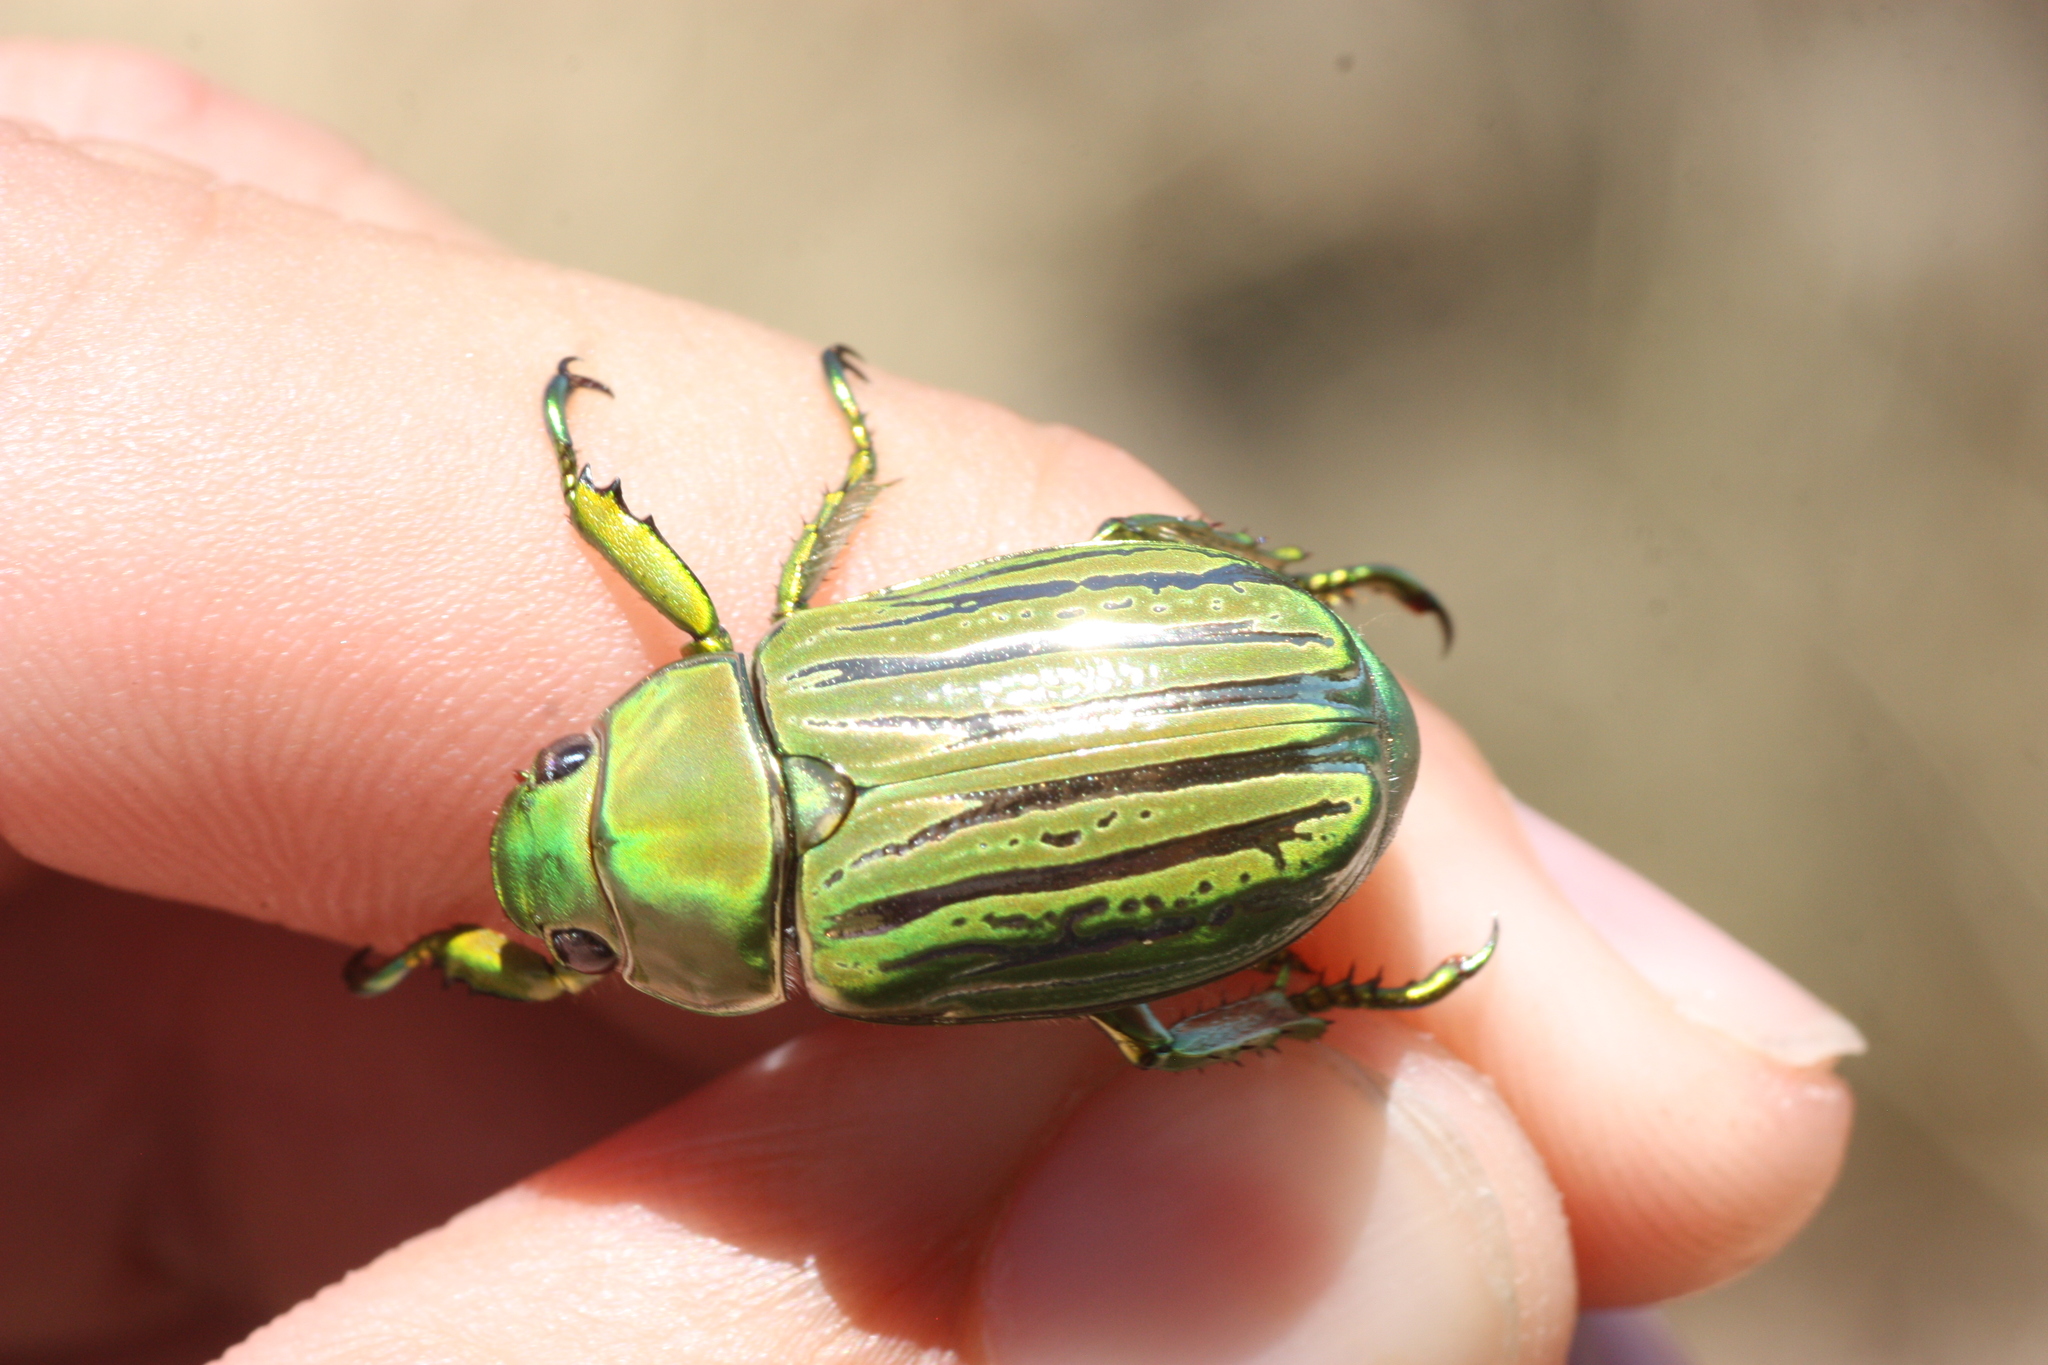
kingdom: Animalia
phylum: Arthropoda
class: Insecta
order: Coleoptera
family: Scarabaeidae
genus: Chrysina
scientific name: Chrysina gloriosa
